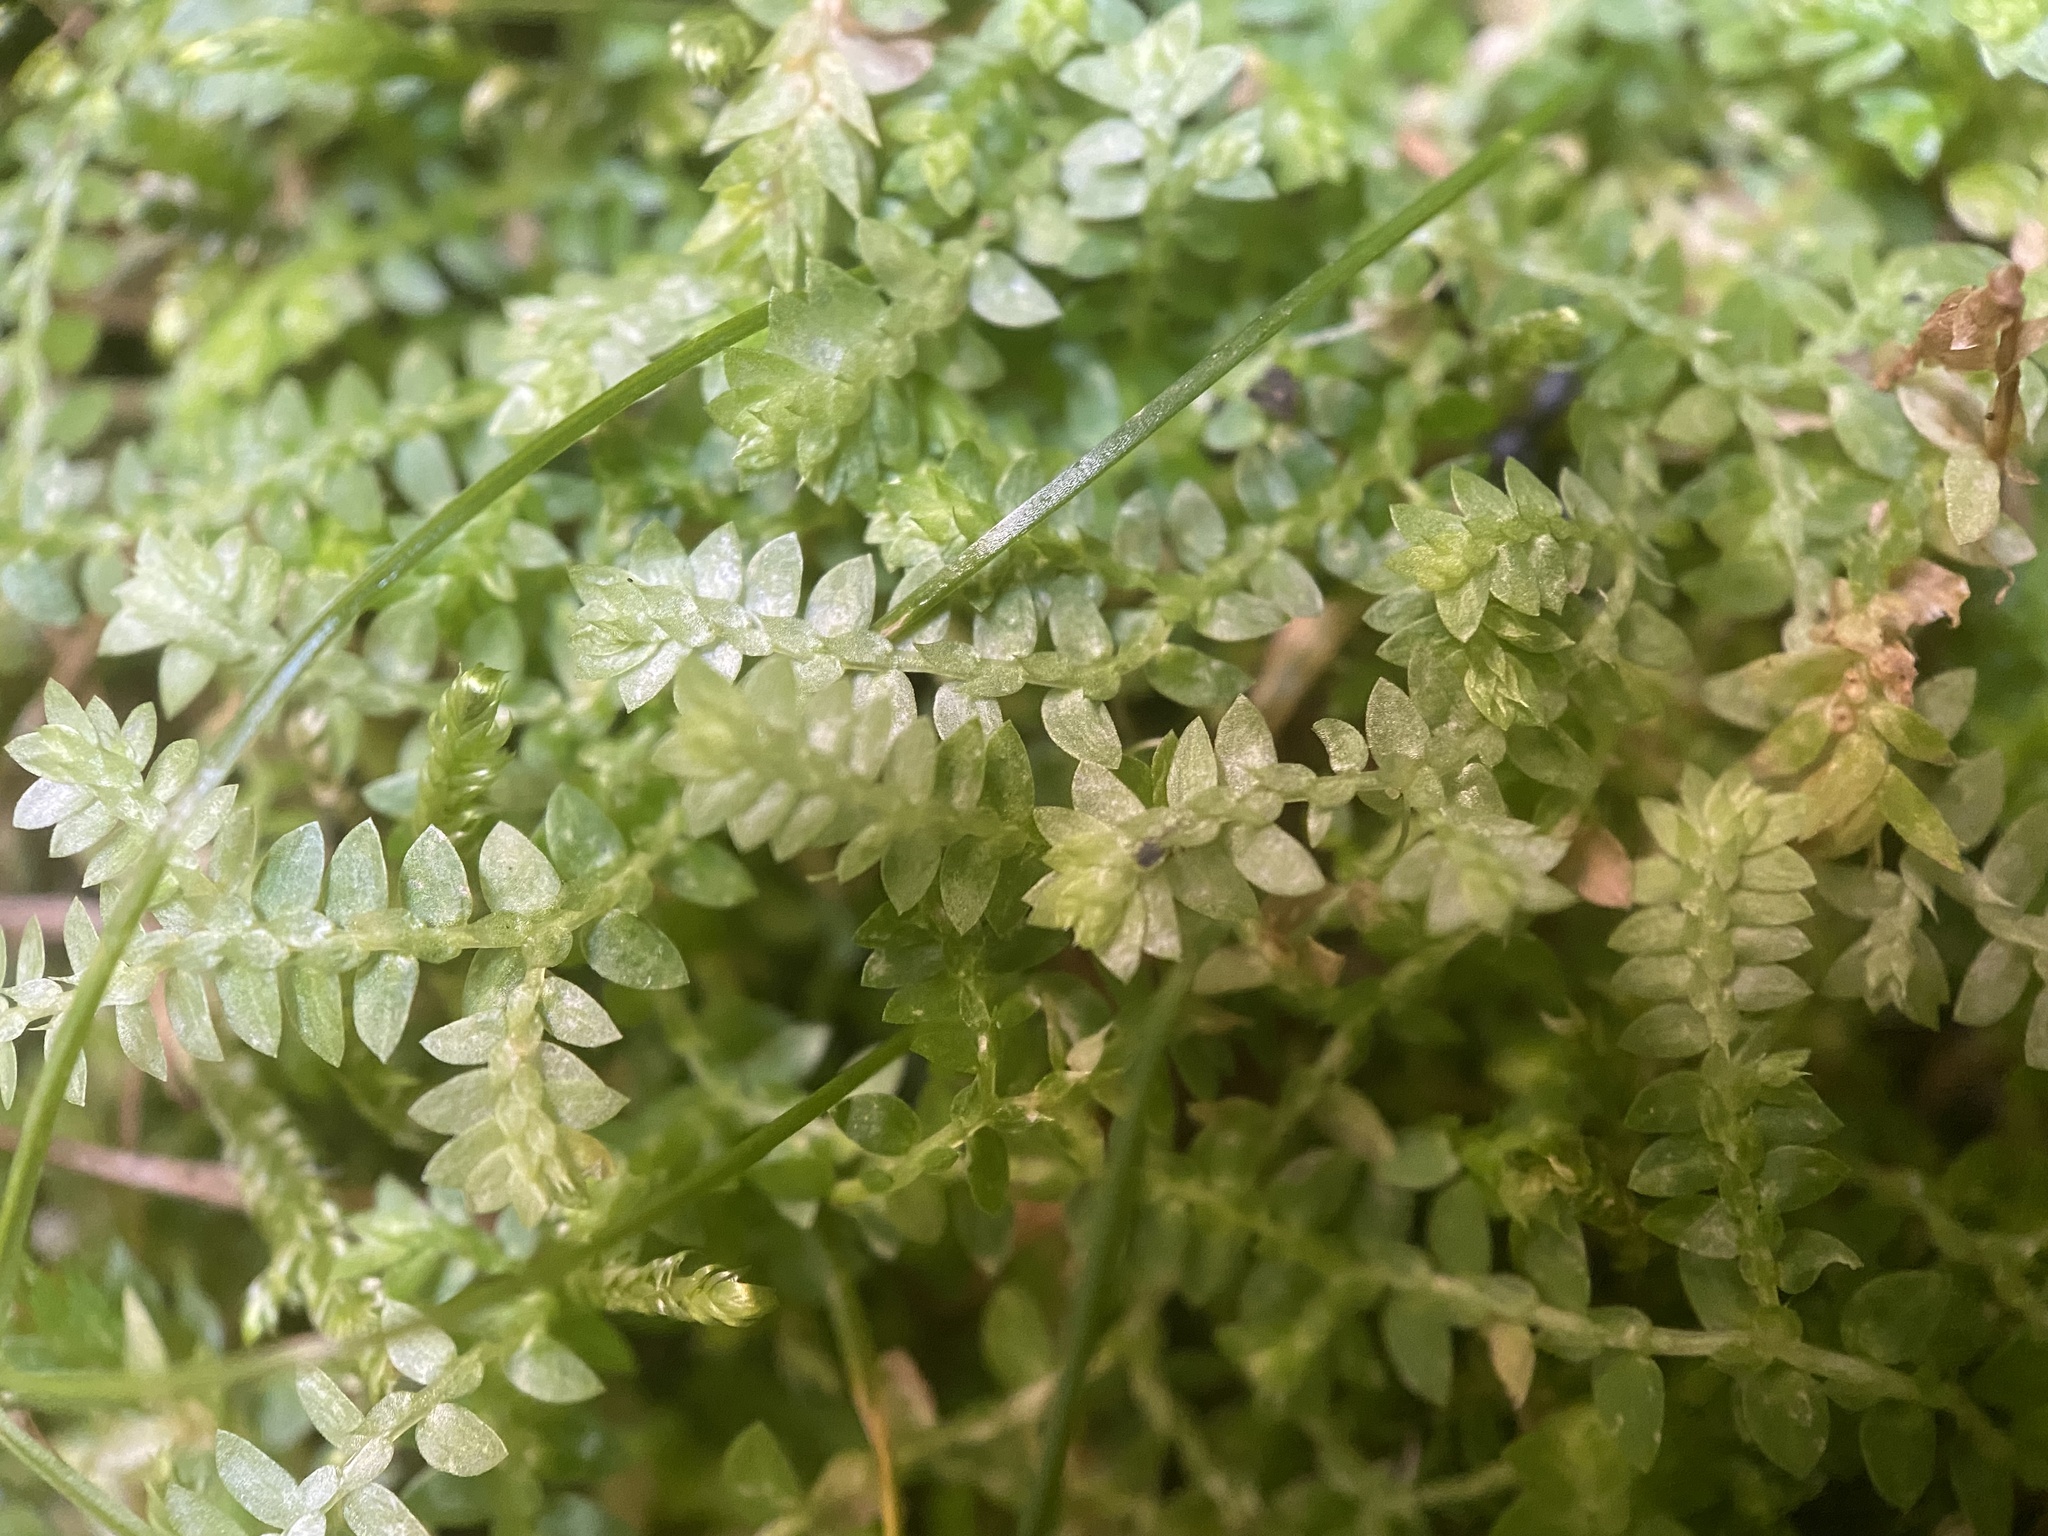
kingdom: Plantae
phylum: Tracheophyta
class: Lycopodiopsida
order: Selaginellales
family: Selaginellaceae
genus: Selaginella
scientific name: Selaginella apoda
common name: Creeping spikemoss
